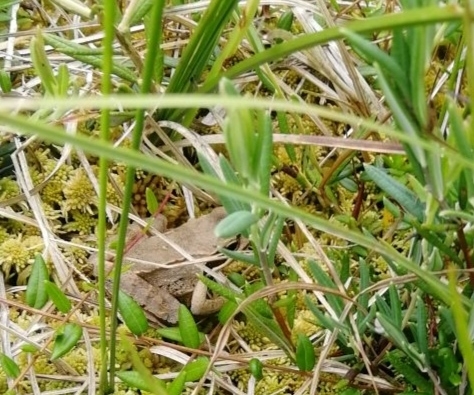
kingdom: Animalia
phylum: Chordata
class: Amphibia
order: Anura
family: Ranidae
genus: Rana
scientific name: Rana arvalis
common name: Moor frog
